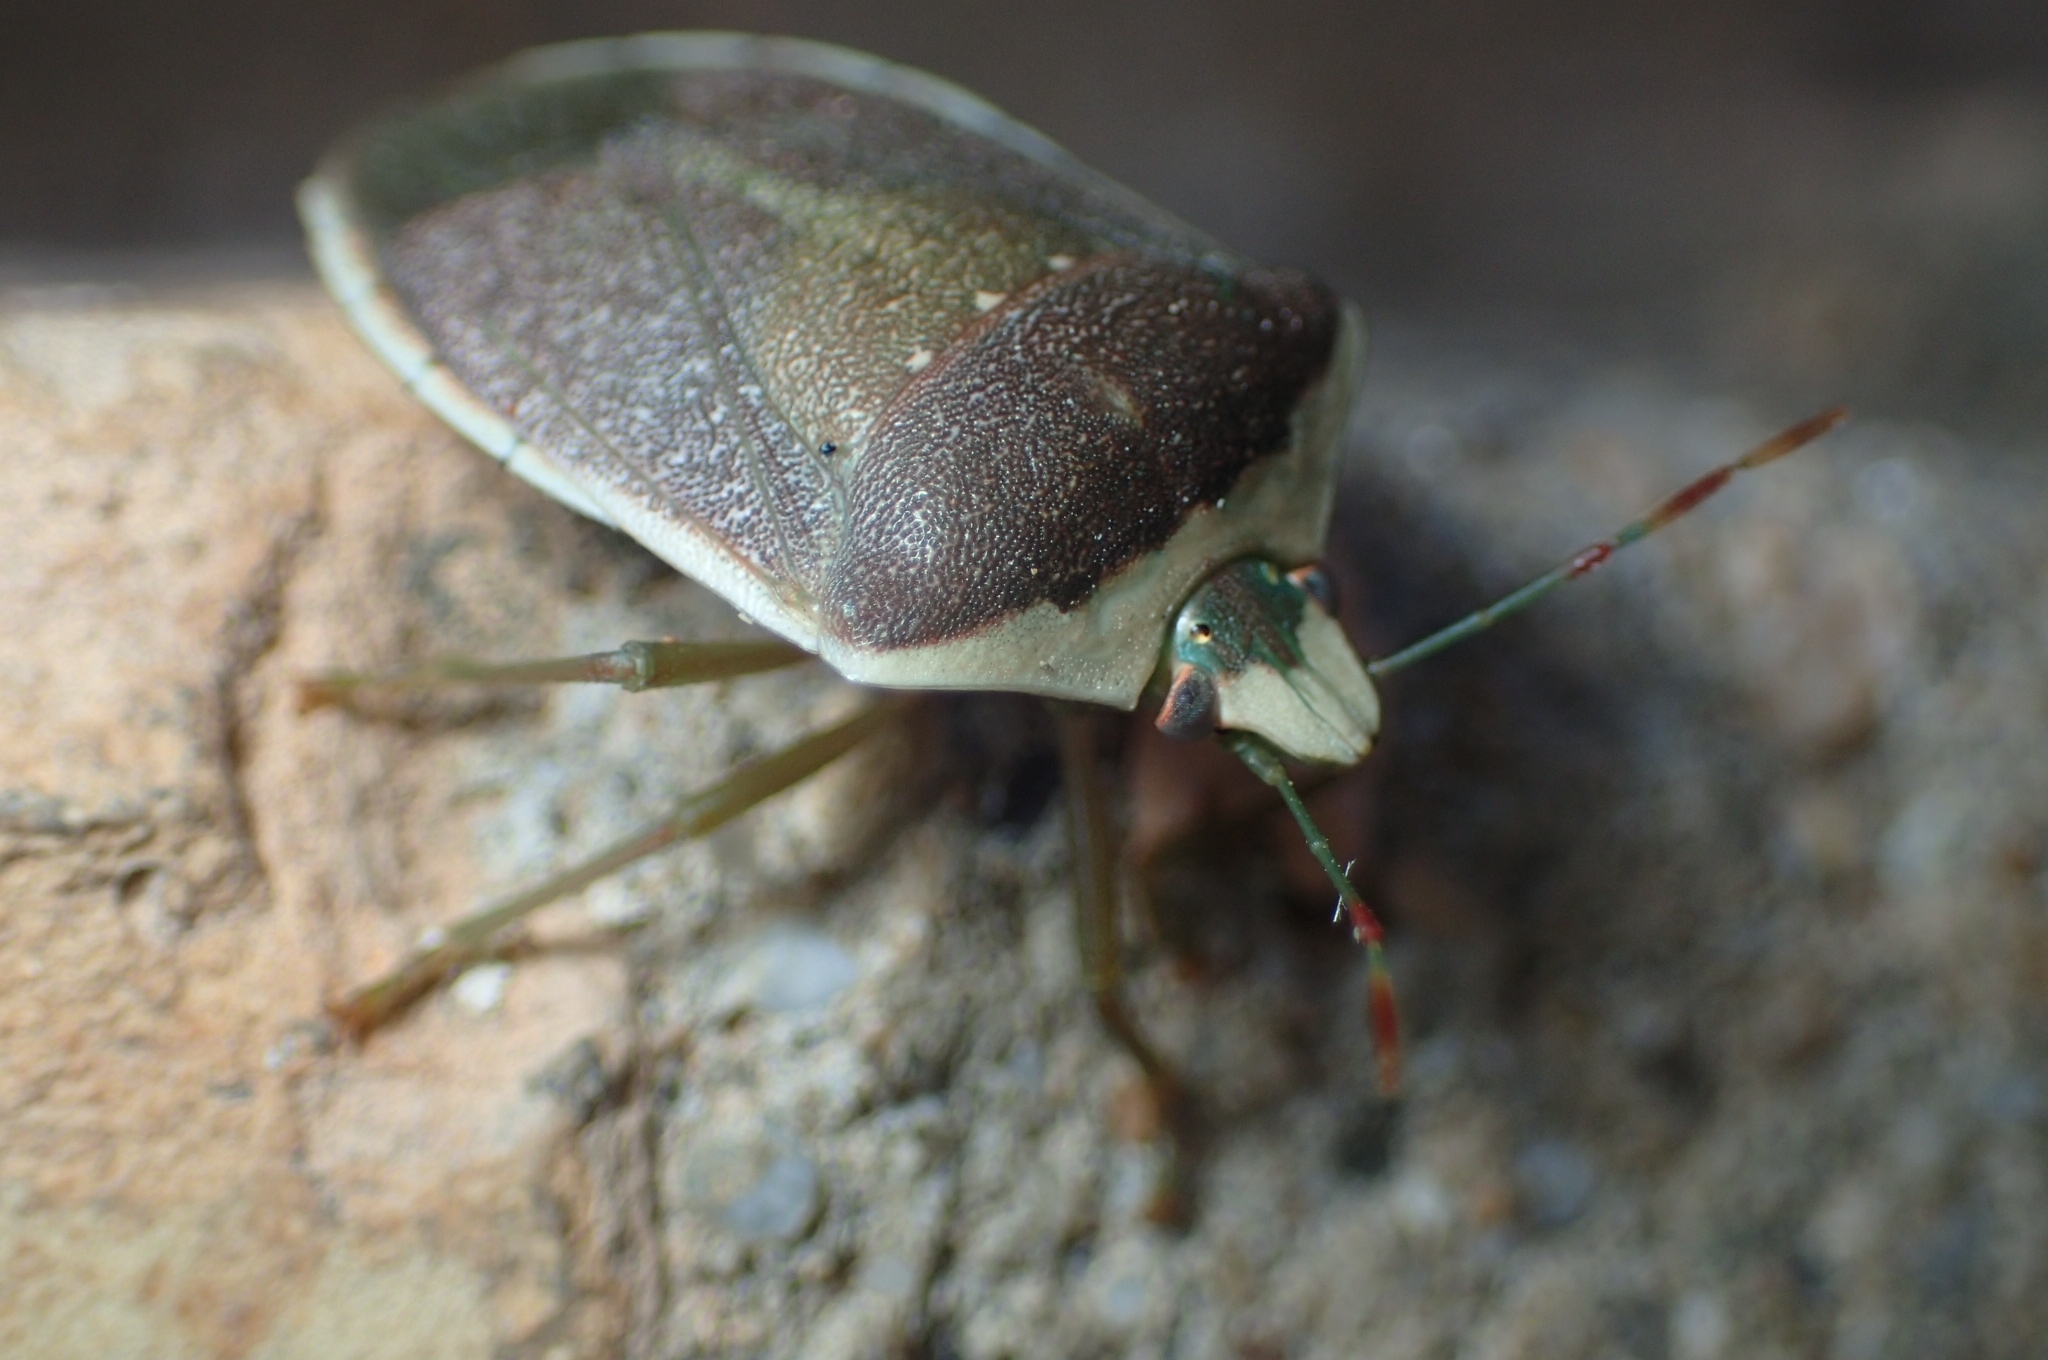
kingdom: Animalia
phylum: Arthropoda
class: Insecta
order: Hemiptera
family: Pentatomidae
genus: Nezara
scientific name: Nezara viridula
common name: Southern green stink bug
